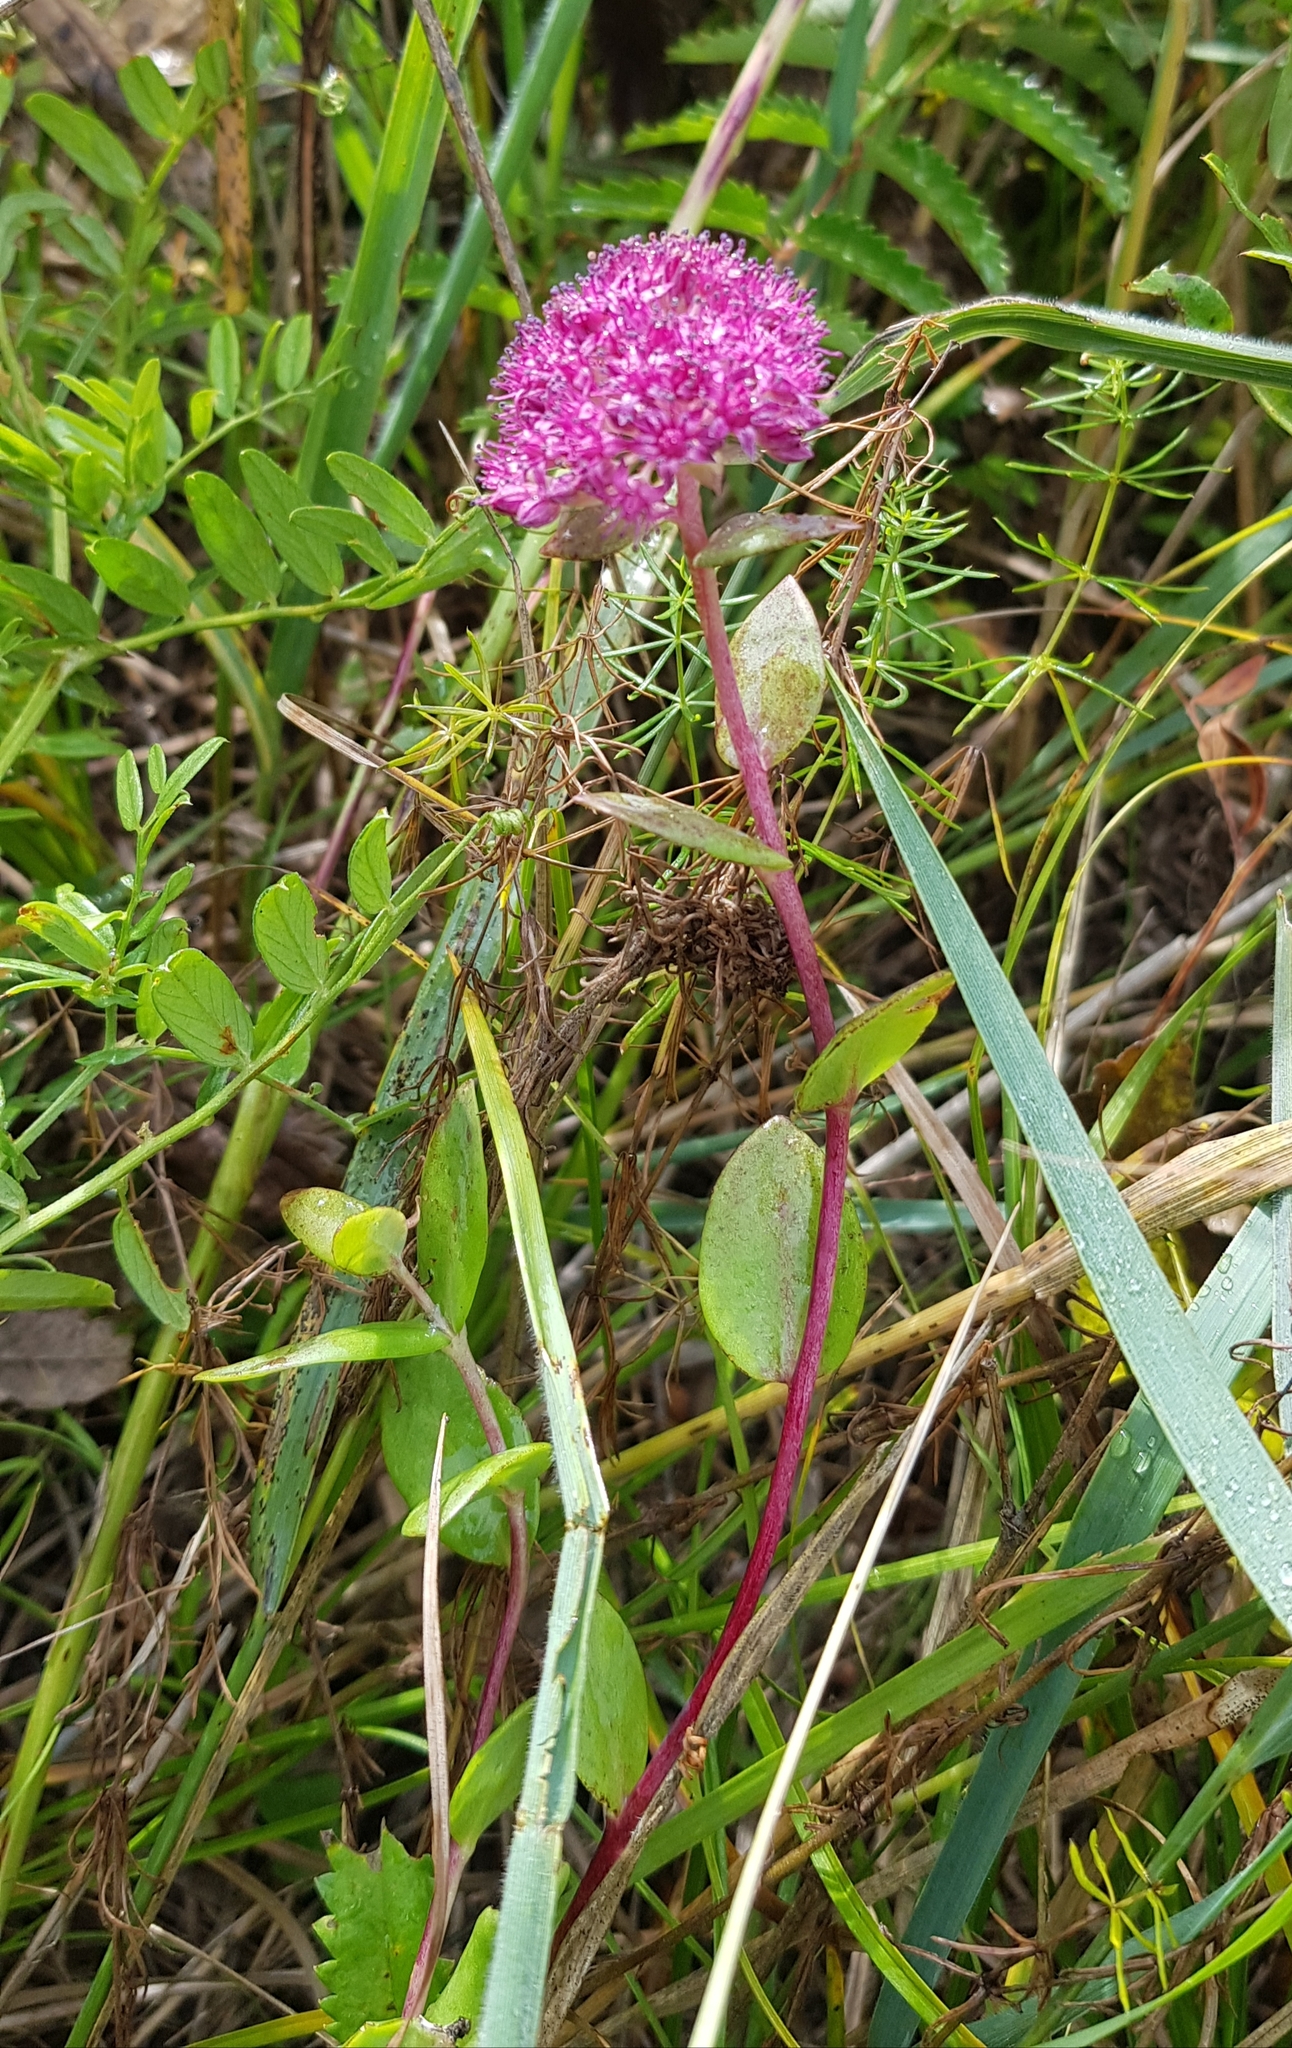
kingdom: Plantae
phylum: Tracheophyta
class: Magnoliopsida
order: Saxifragales
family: Crassulaceae
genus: Hylotelephium
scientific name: Hylotelephium telephium
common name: Live-forever
